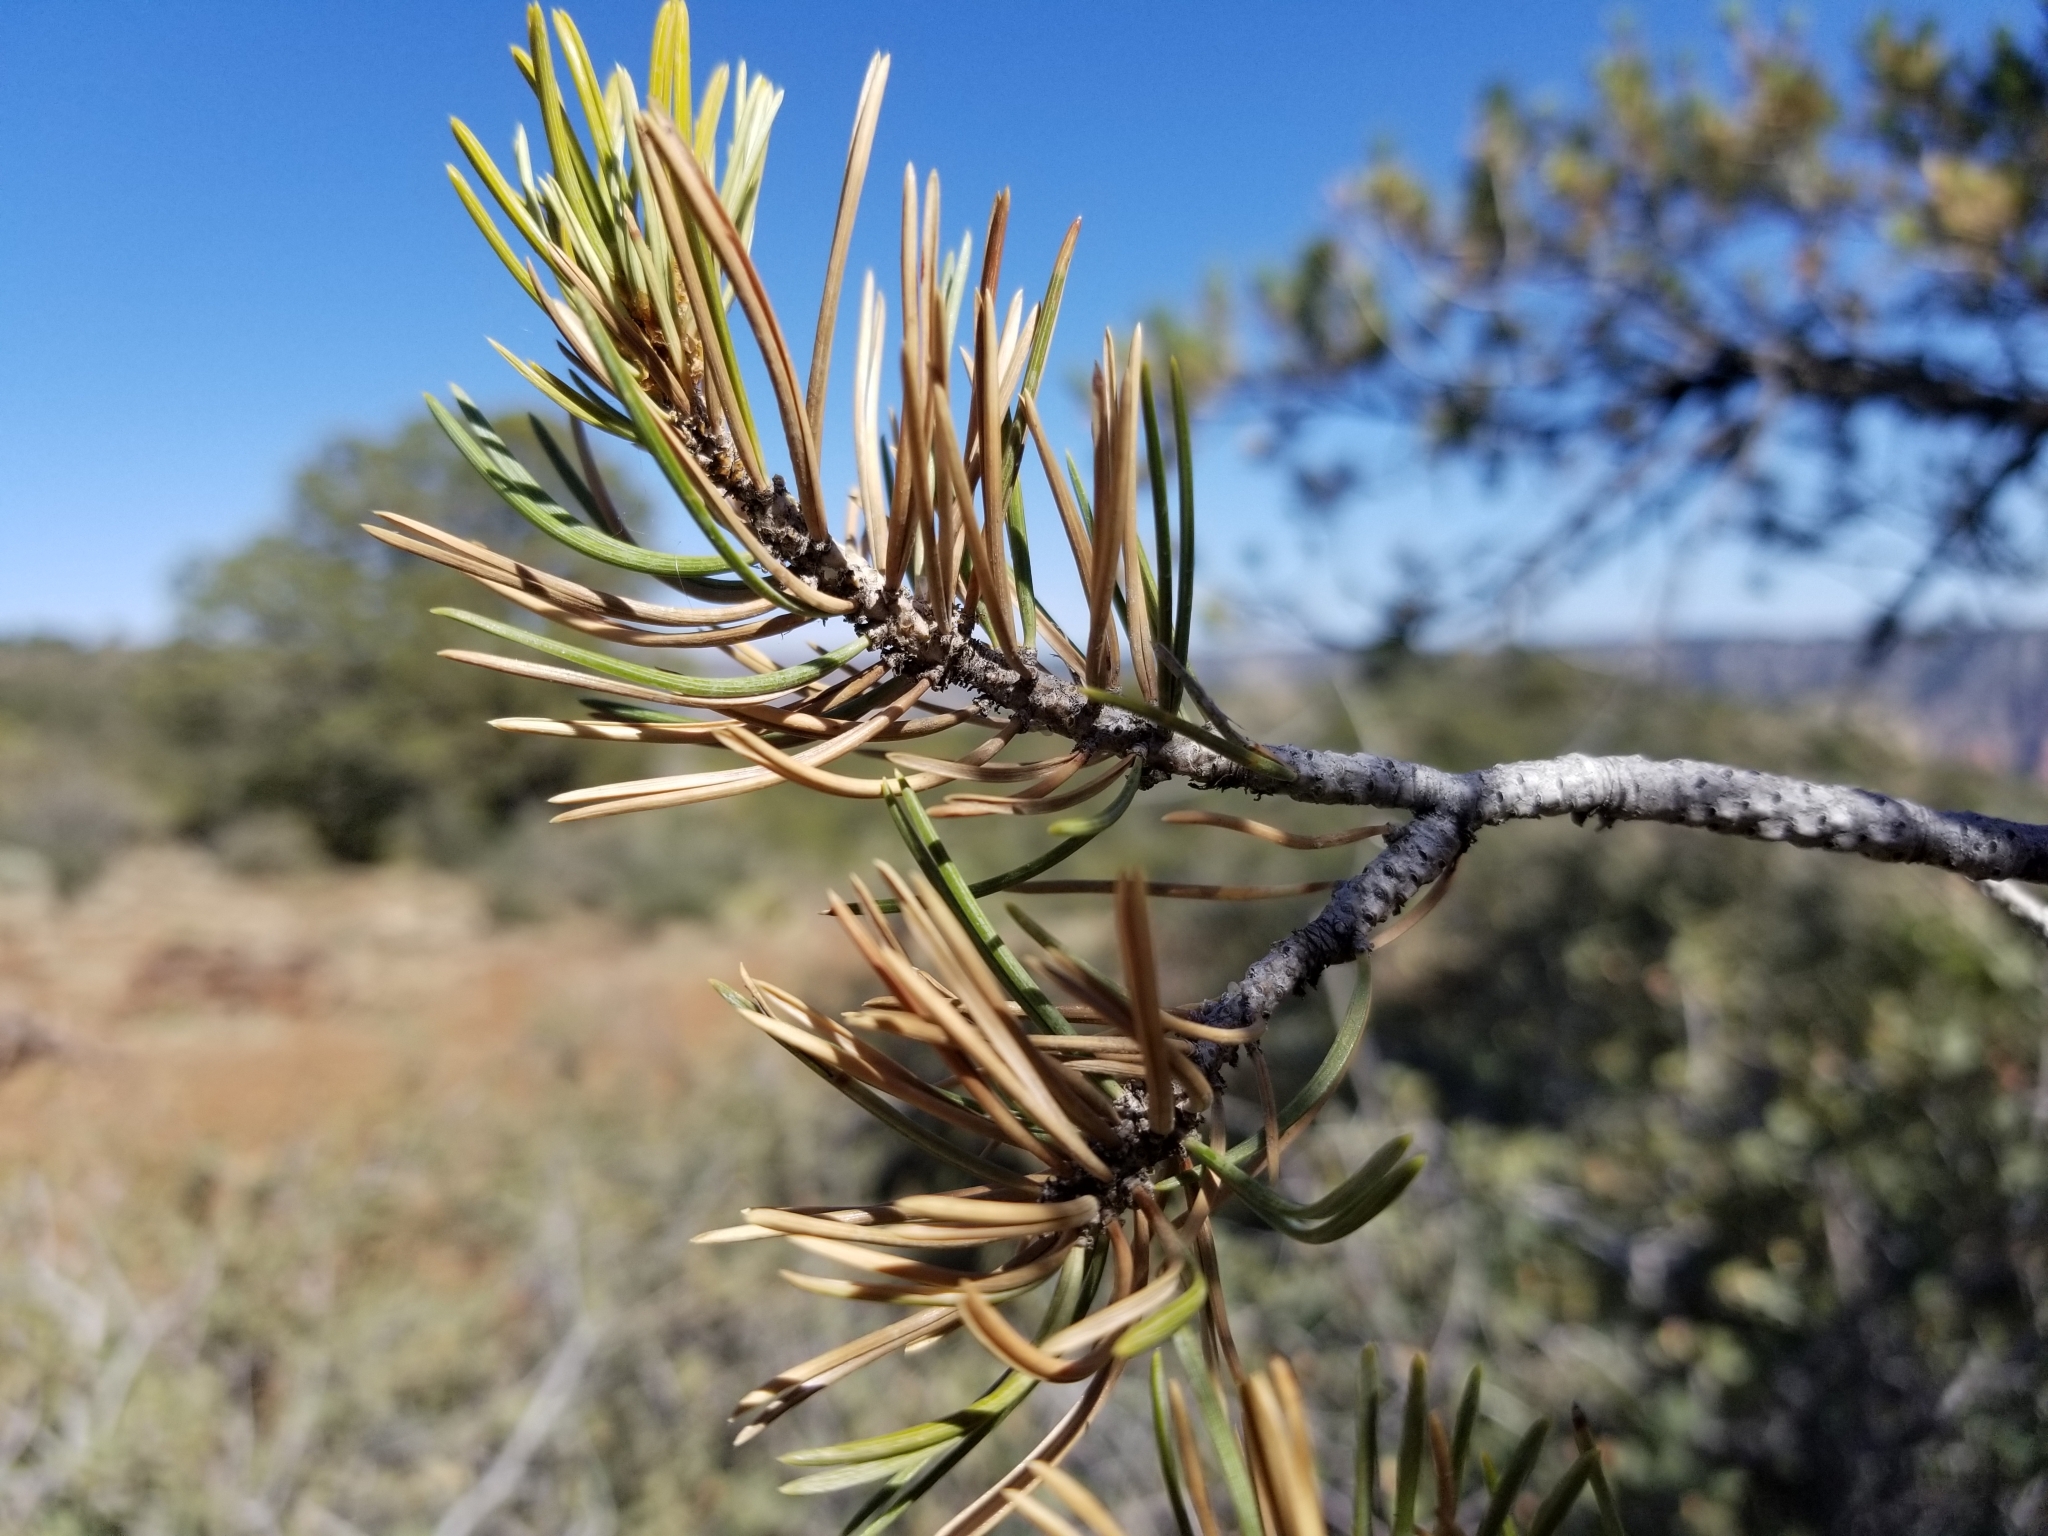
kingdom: Plantae
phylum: Tracheophyta
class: Pinopsida
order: Pinales
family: Pinaceae
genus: Pinus
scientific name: Pinus edulis
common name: Colorado pinyon
